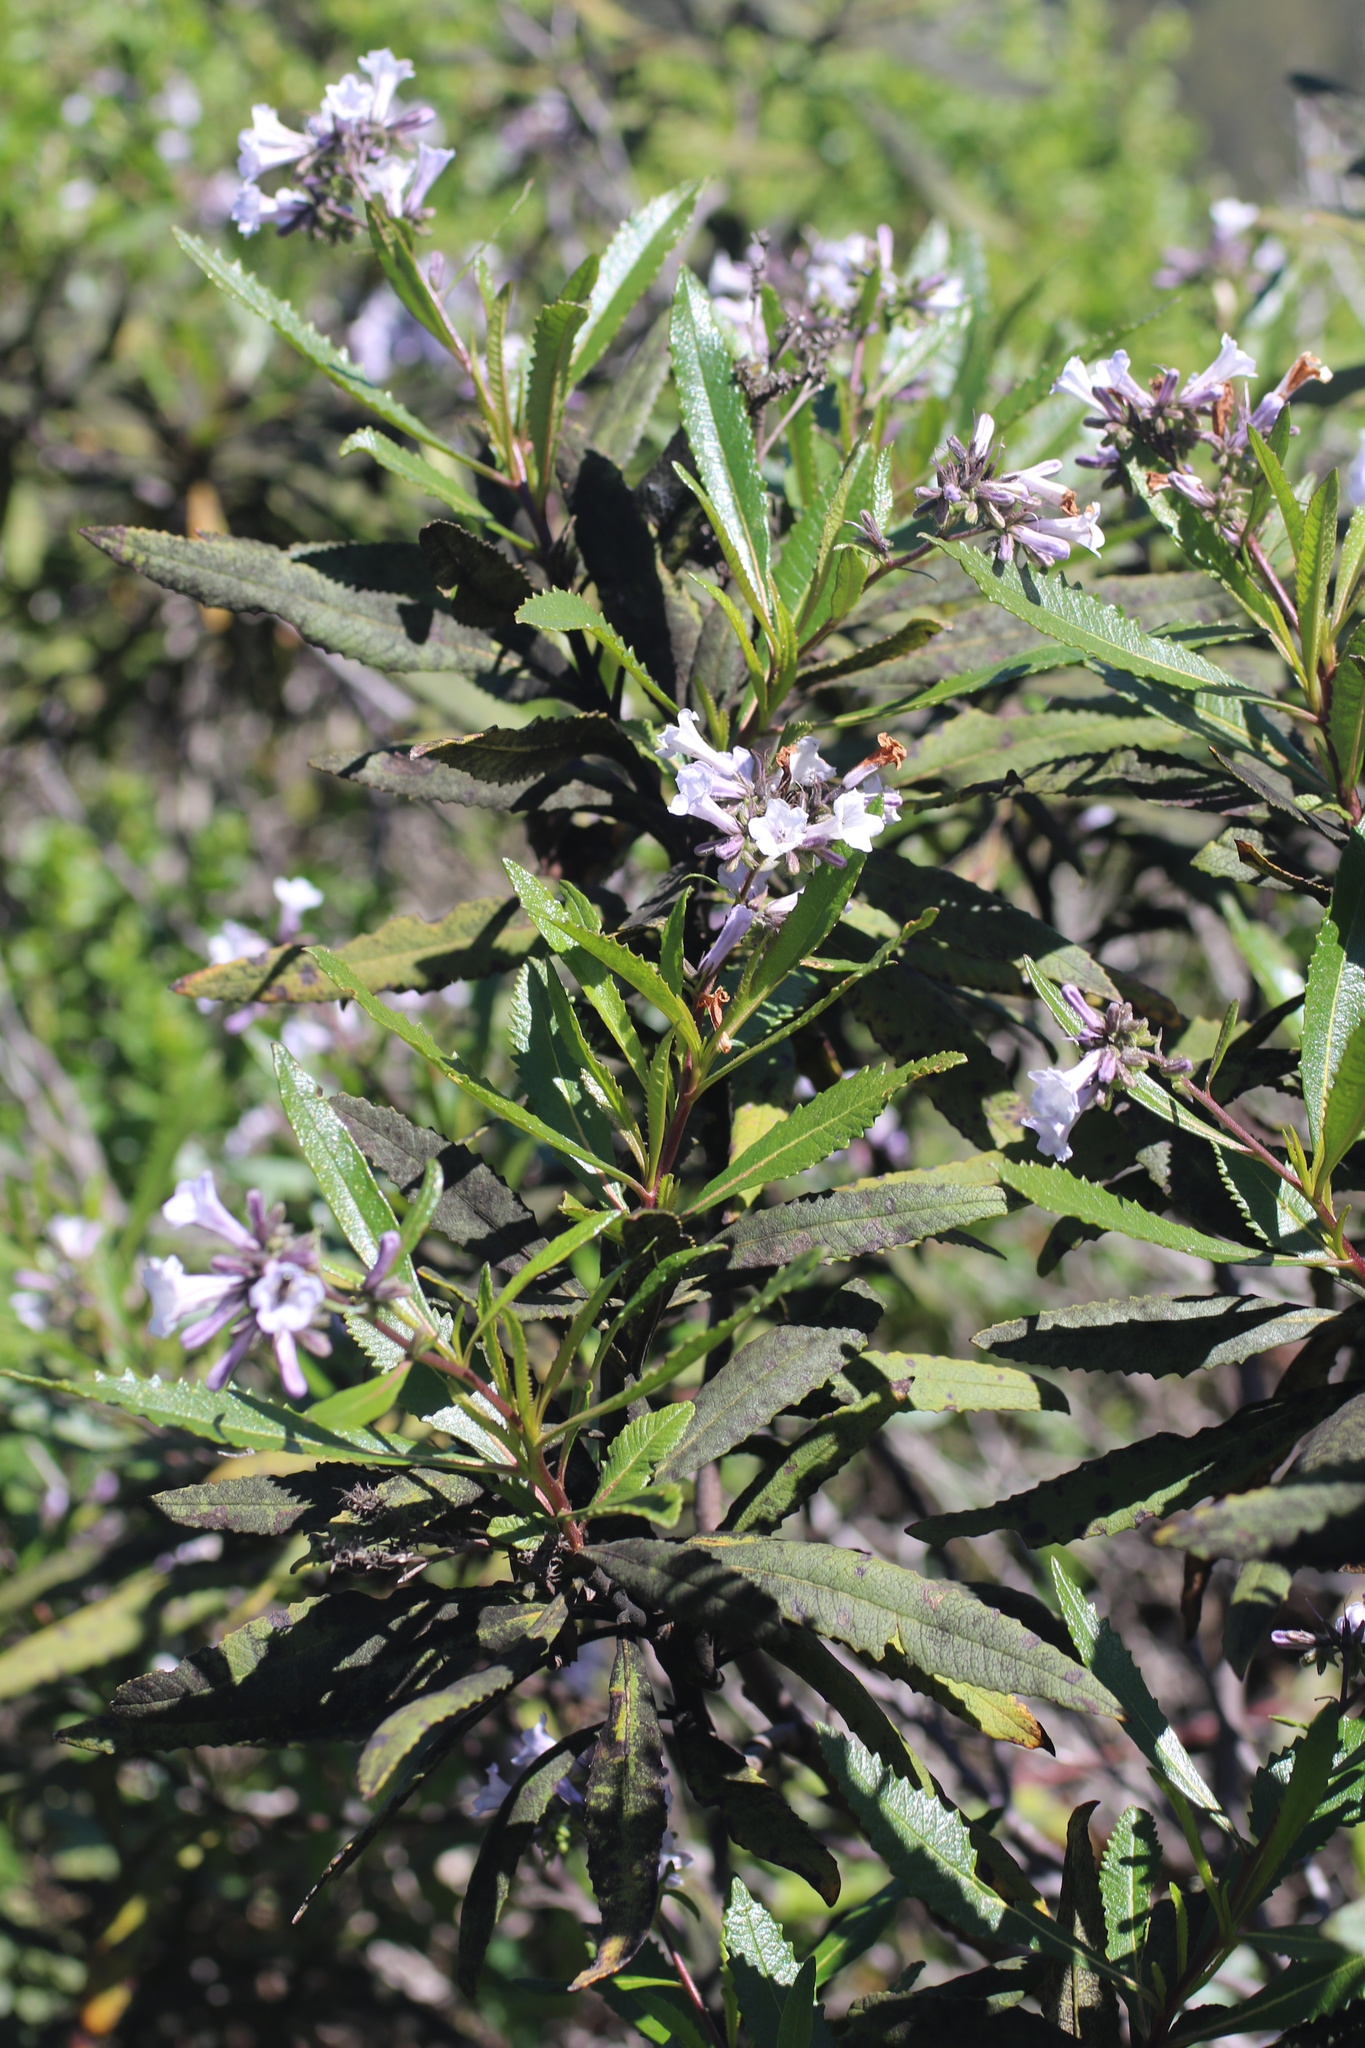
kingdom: Plantae
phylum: Tracheophyta
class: Magnoliopsida
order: Boraginales
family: Namaceae
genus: Eriodictyon
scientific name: Eriodictyon californicum
